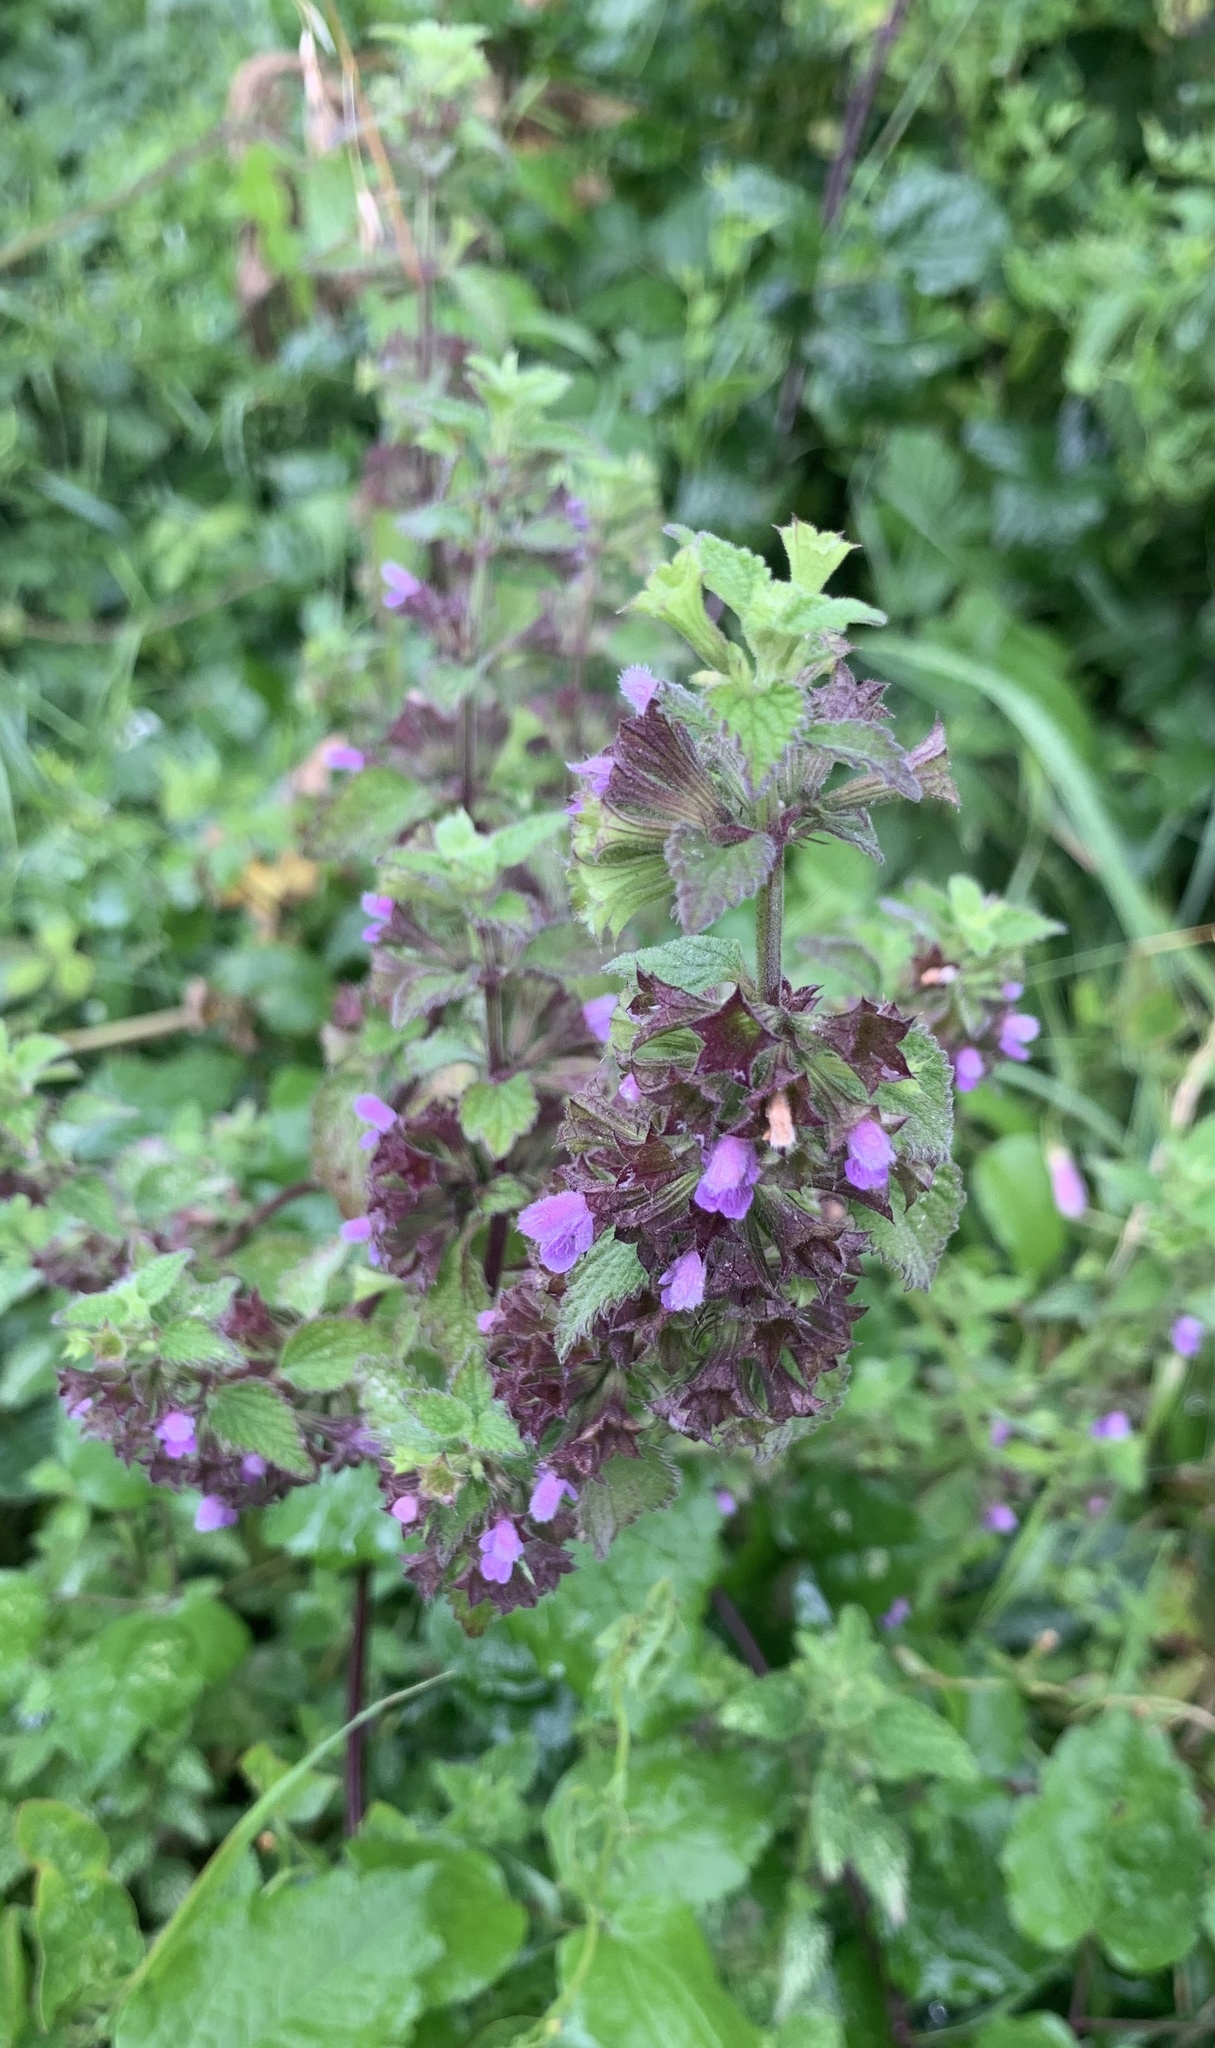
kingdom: Plantae
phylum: Tracheophyta
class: Magnoliopsida
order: Lamiales
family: Lamiaceae
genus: Ballota
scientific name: Ballota nigra
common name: Black horehound
